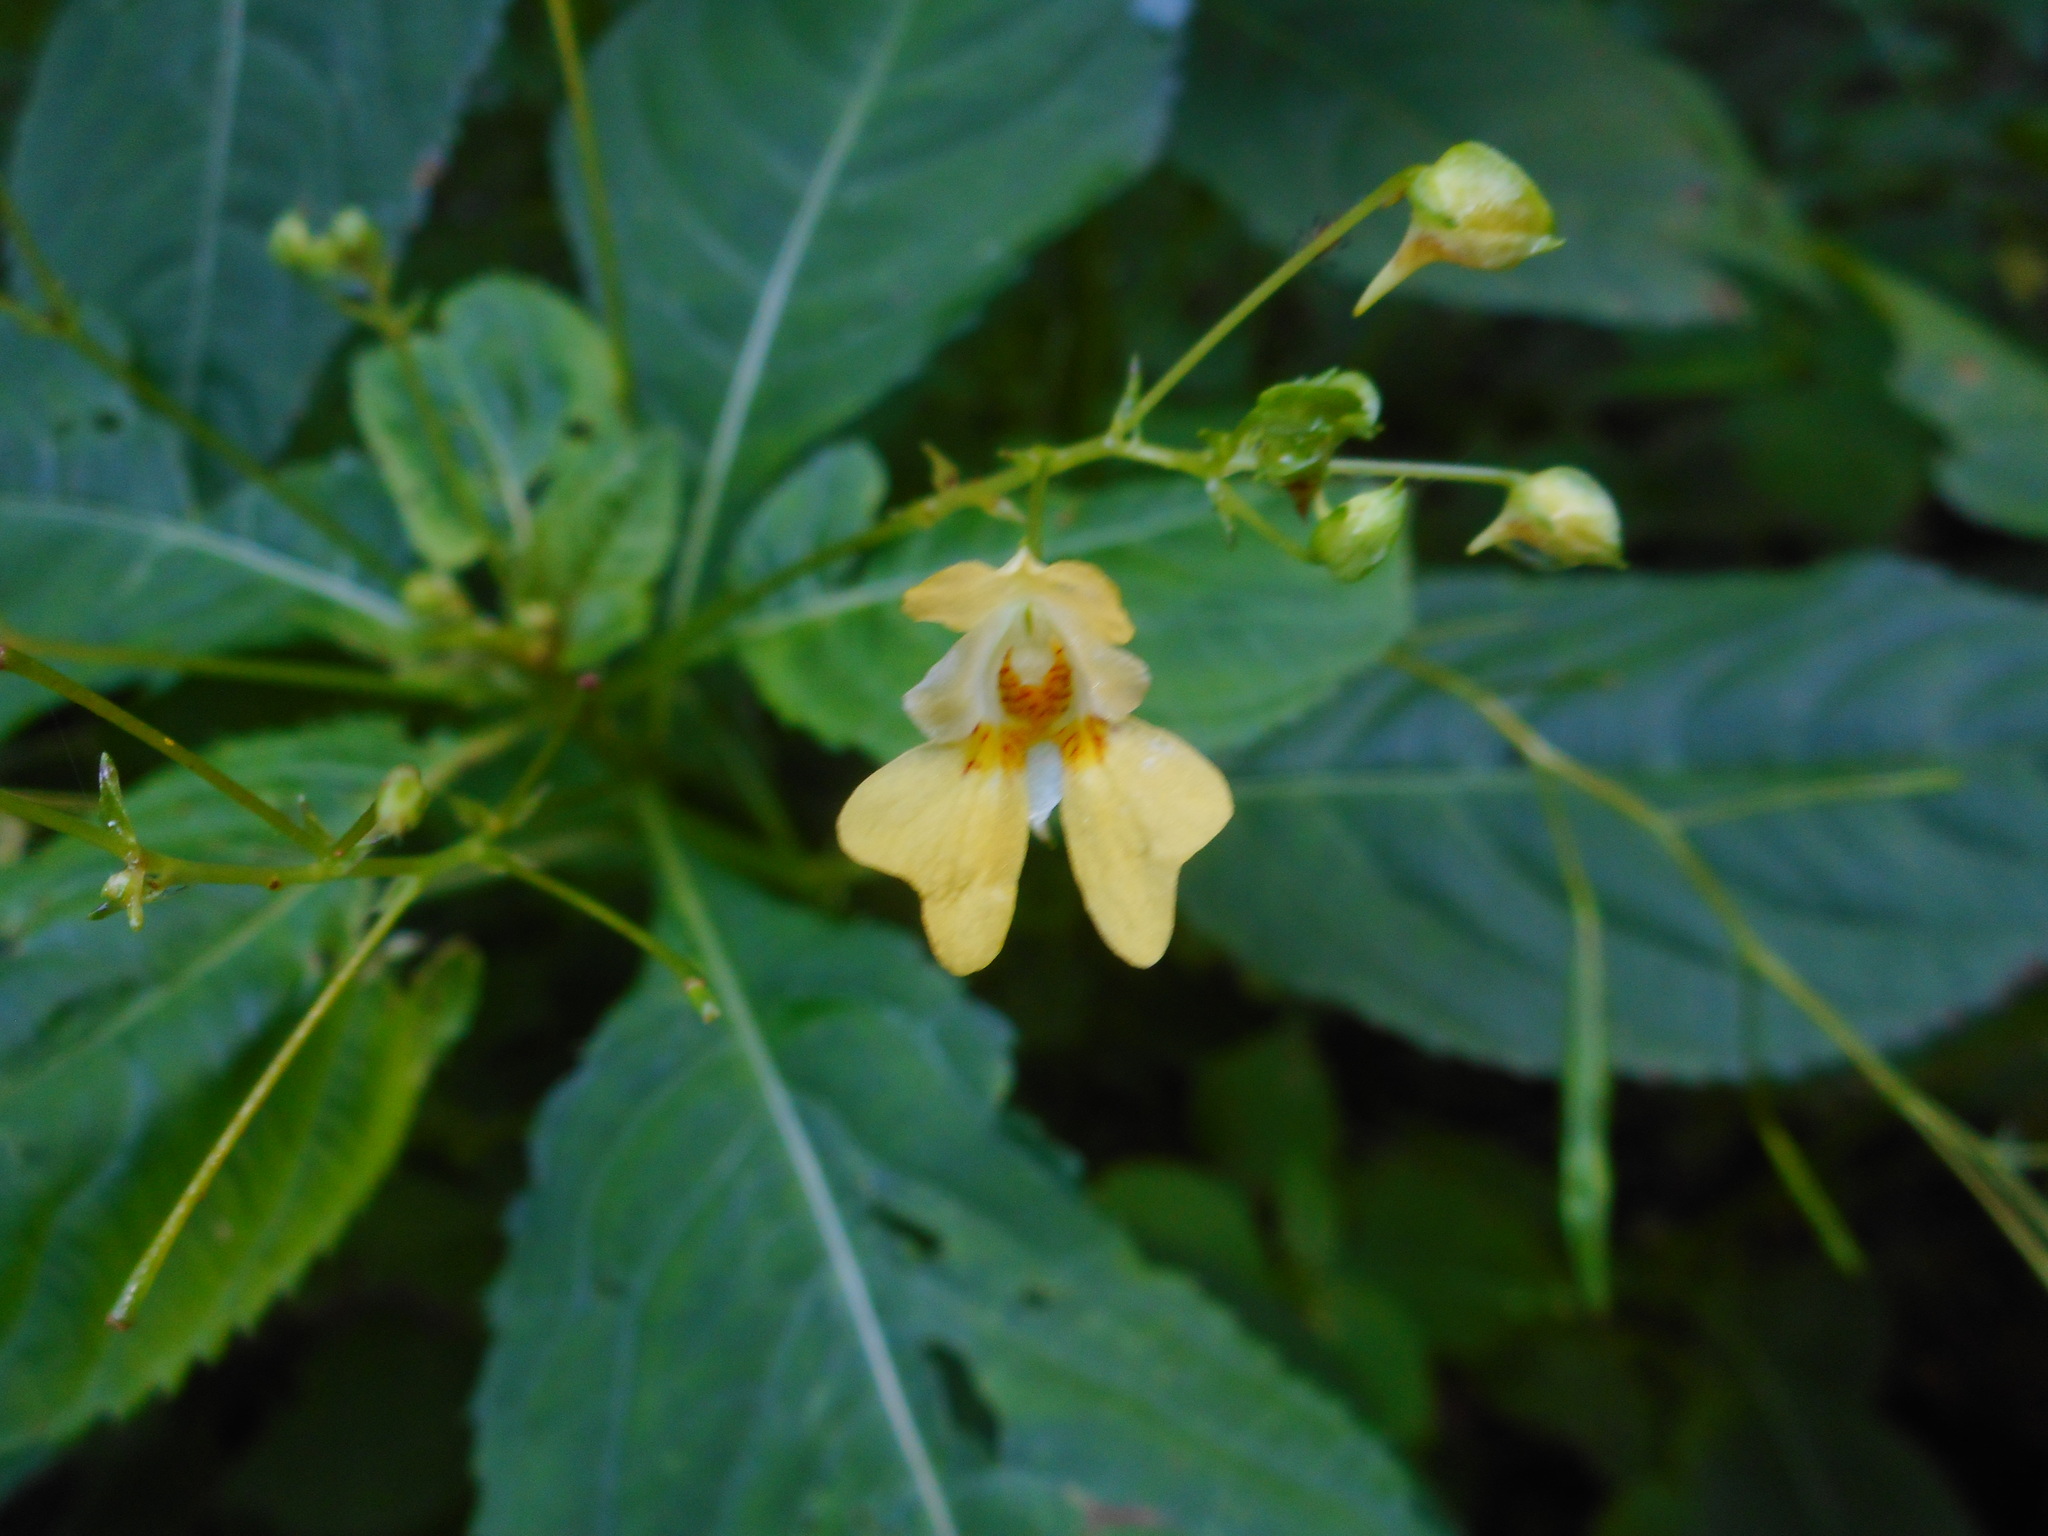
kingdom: Plantae
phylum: Tracheophyta
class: Magnoliopsida
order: Ericales
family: Balsaminaceae
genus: Impatiens
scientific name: Impatiens parviflora
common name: Small balsam
